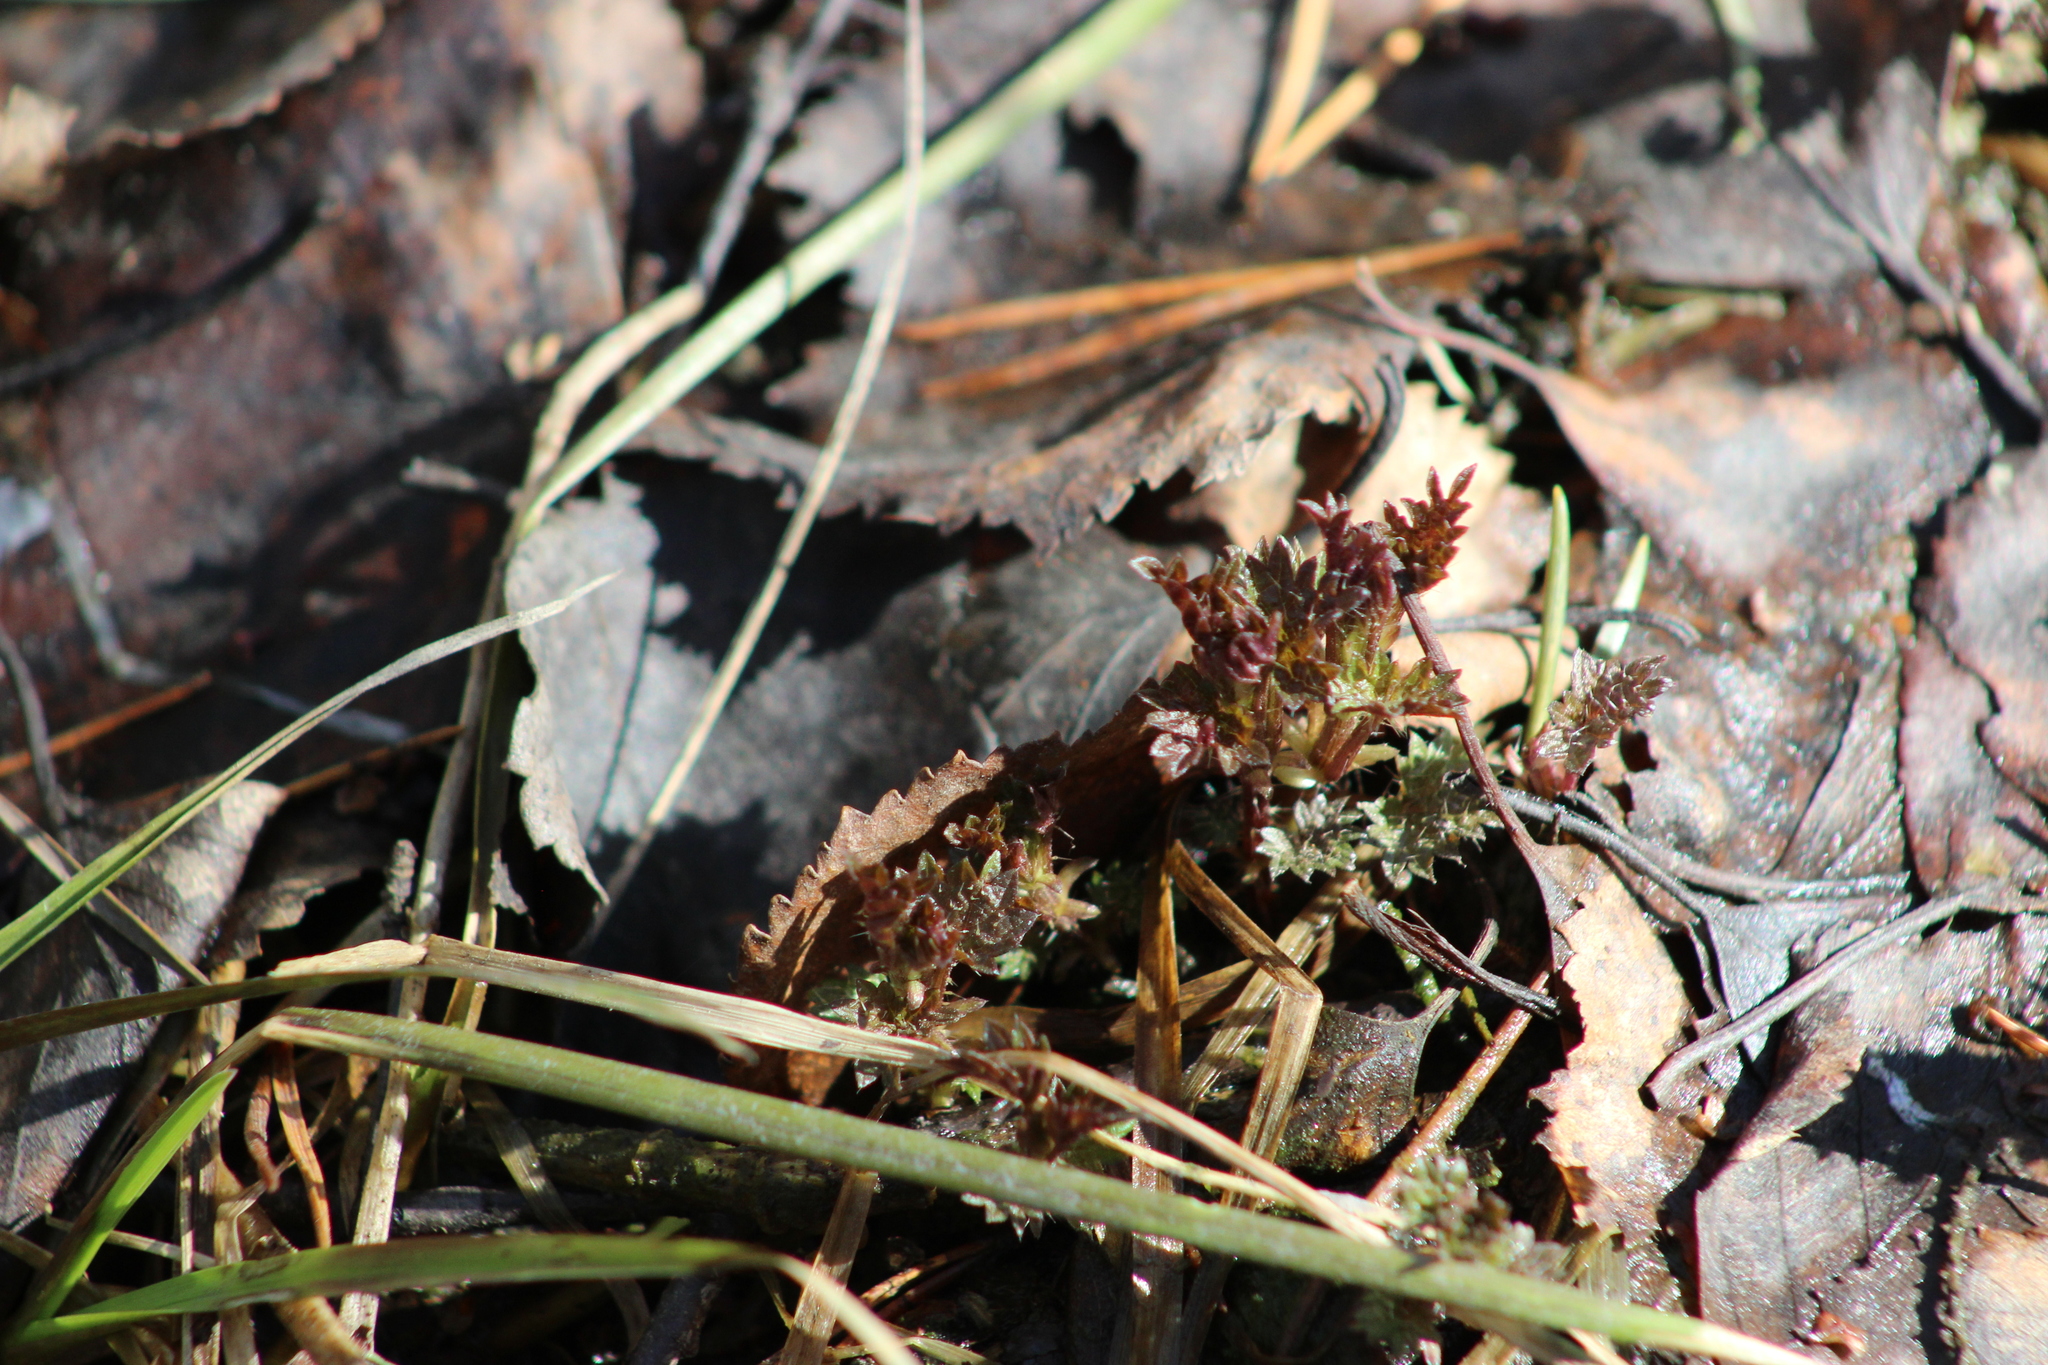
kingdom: Plantae
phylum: Tracheophyta
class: Magnoliopsida
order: Rosales
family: Urticaceae
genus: Urtica
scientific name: Urtica dioica
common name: Common nettle
